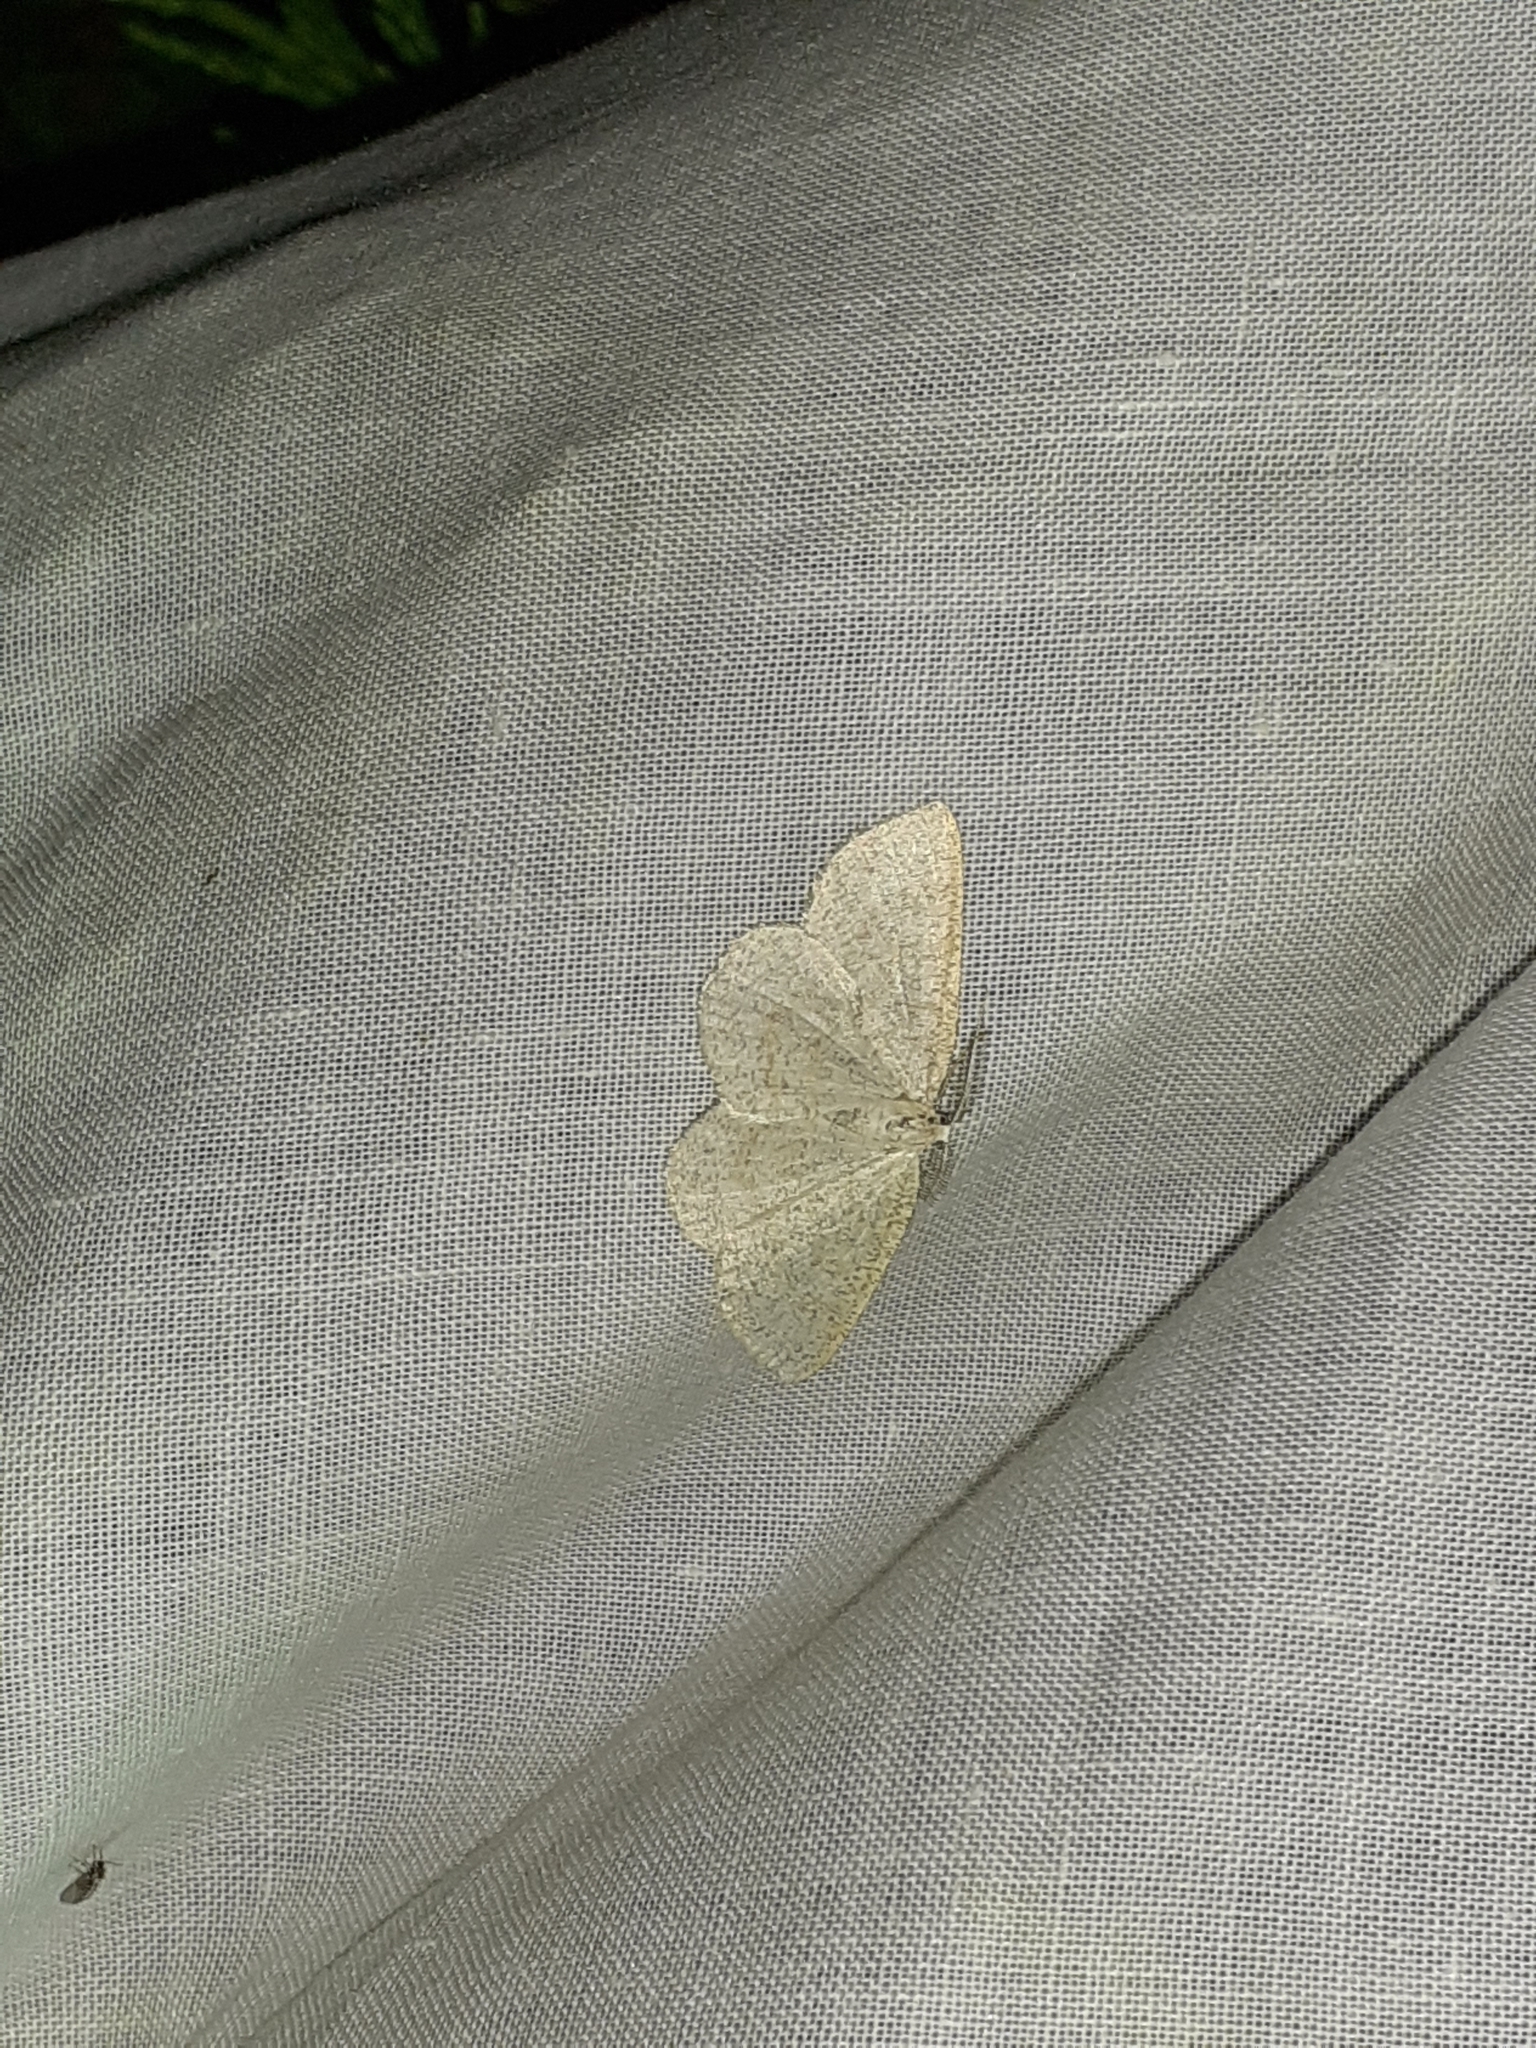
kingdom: Animalia
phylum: Arthropoda
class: Insecta
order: Lepidoptera
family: Geometridae
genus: Cabera
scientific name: Cabera exanthemata
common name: Common wave
